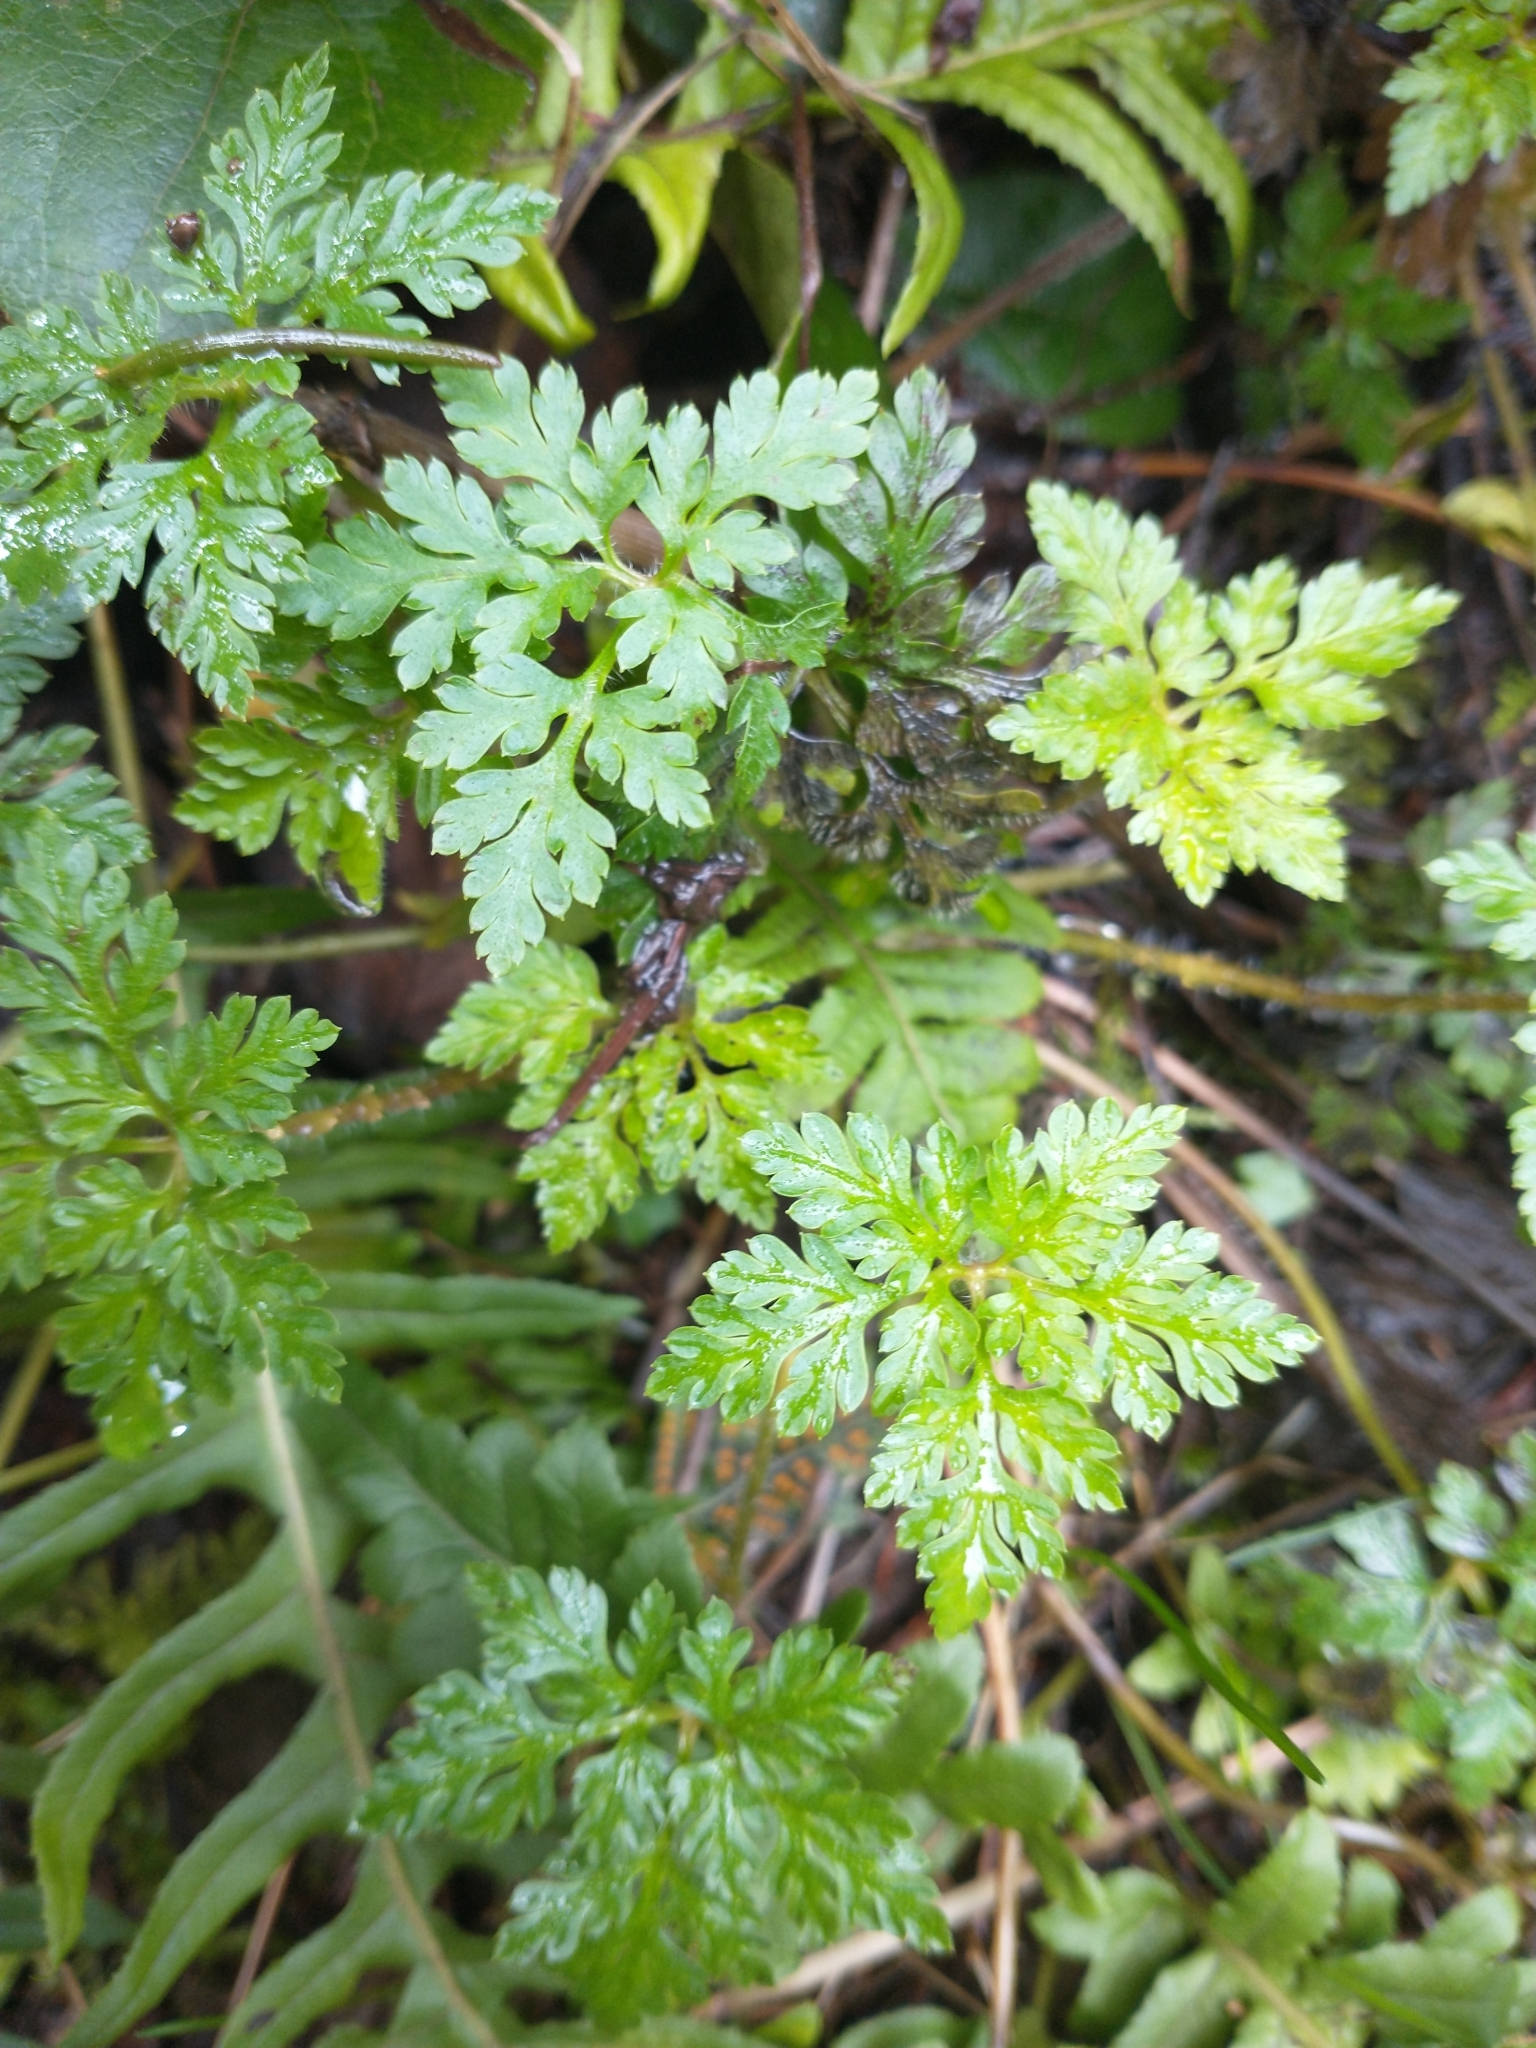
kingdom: Plantae
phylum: Tracheophyta
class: Magnoliopsida
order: Geraniales
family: Geraniaceae
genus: Geranium
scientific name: Geranium robertianum
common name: Herb-robert
